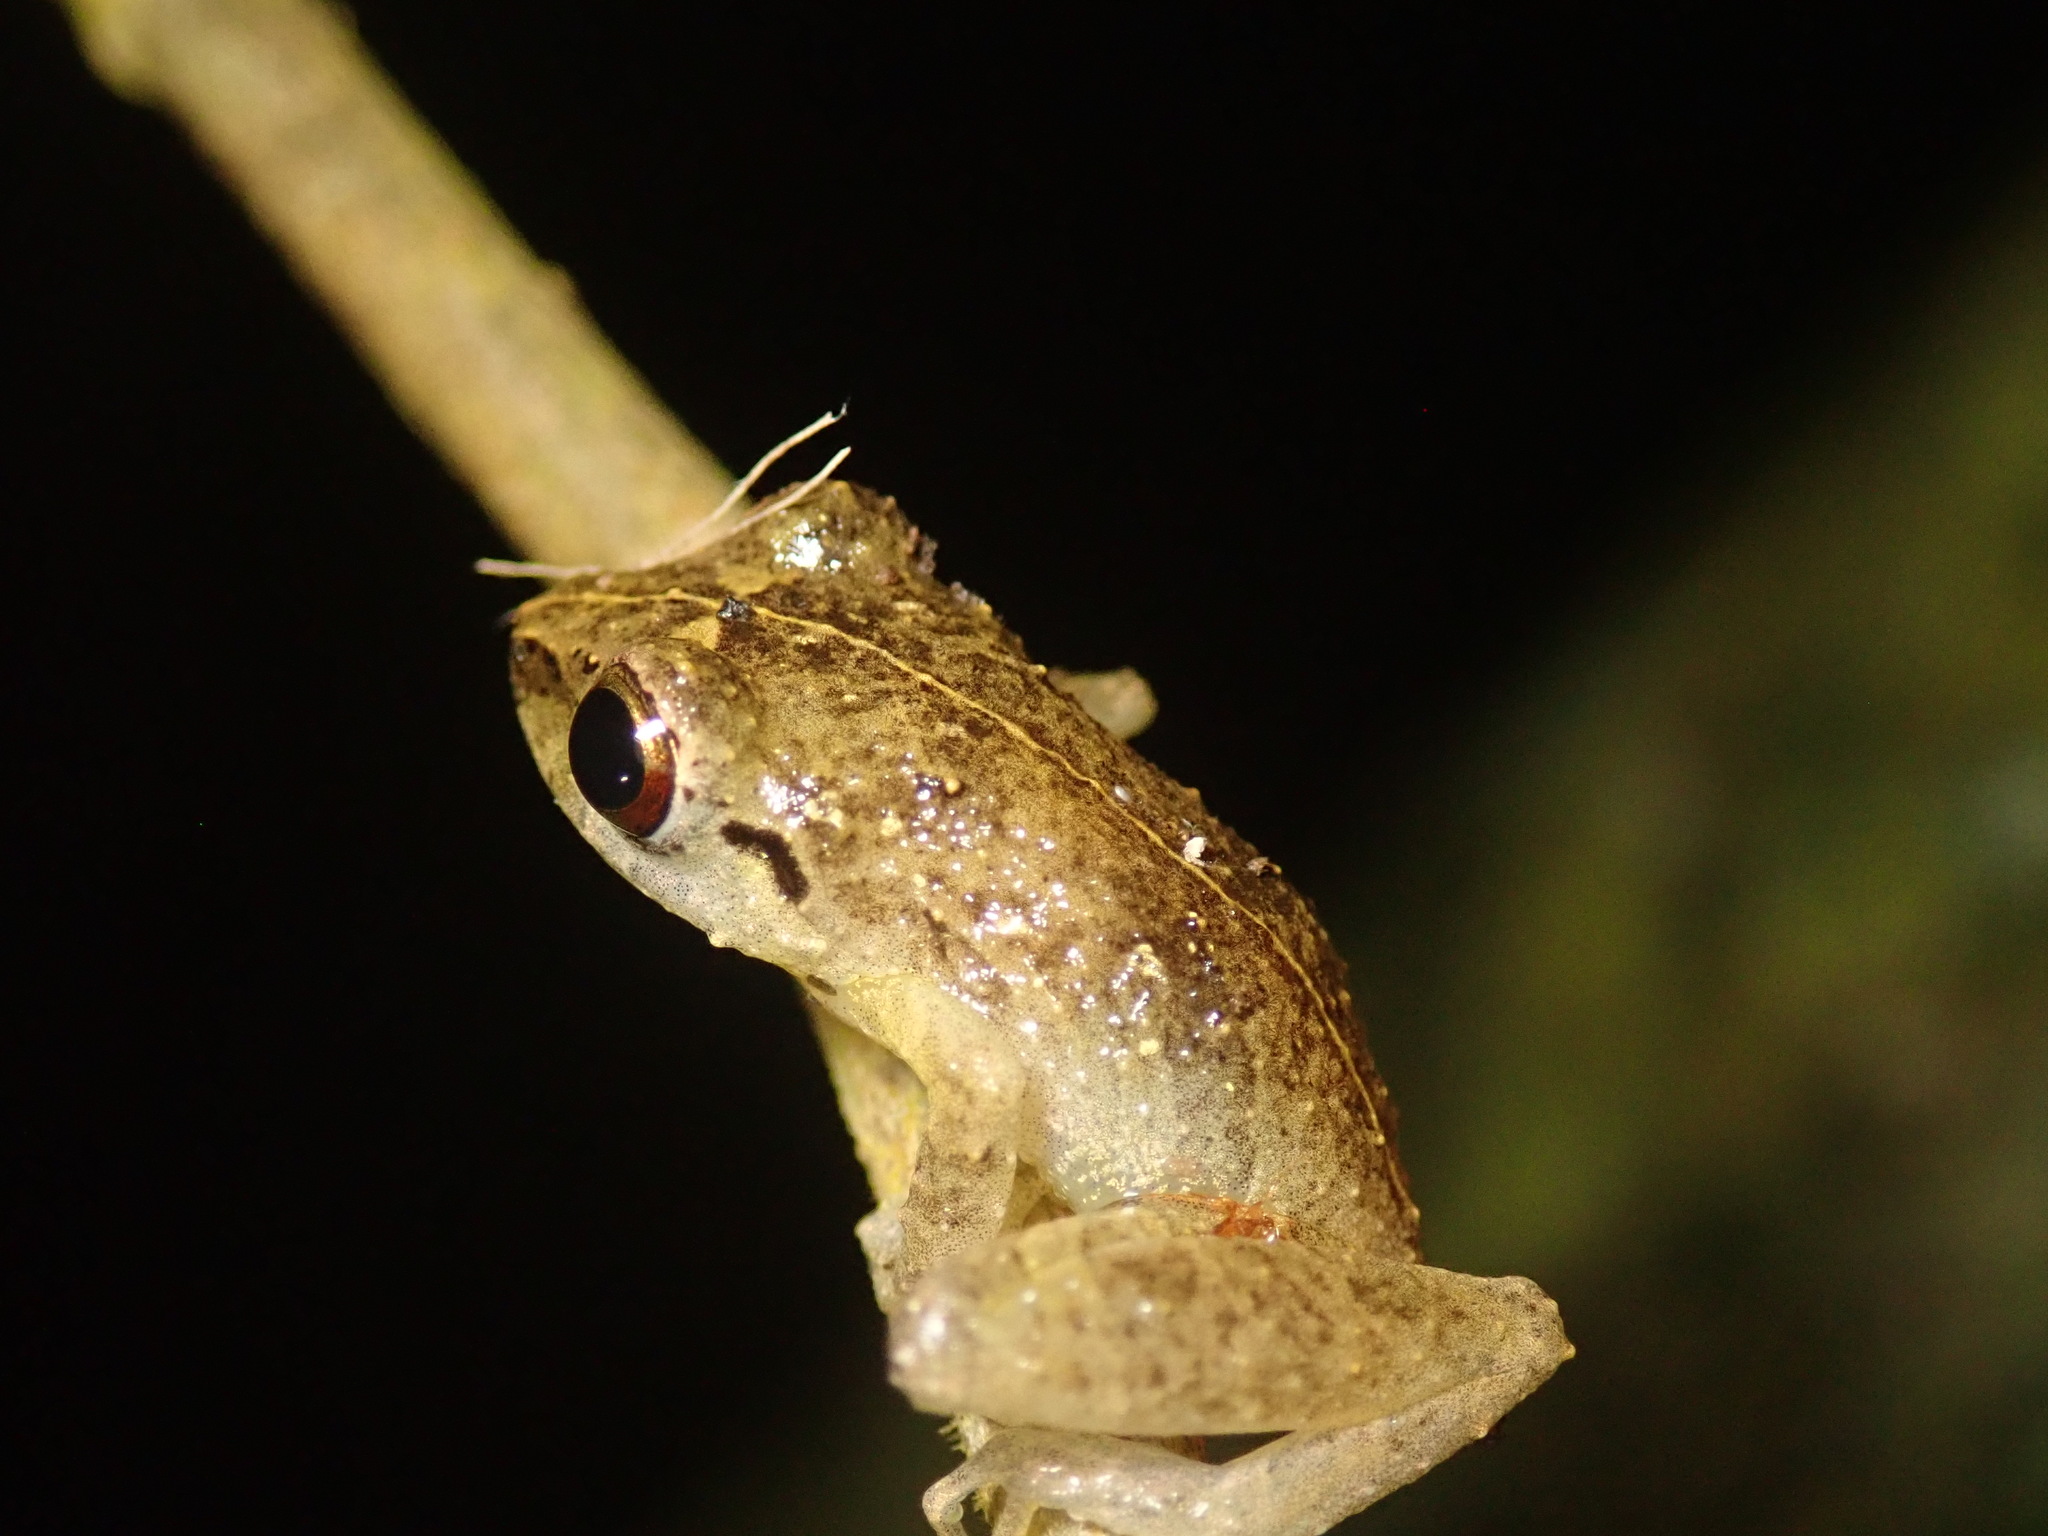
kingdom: Animalia
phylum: Chordata
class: Amphibia
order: Anura
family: Craugastoridae
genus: Pristimantis
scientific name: Pristimantis ridens
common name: Rio san juan robber frog
